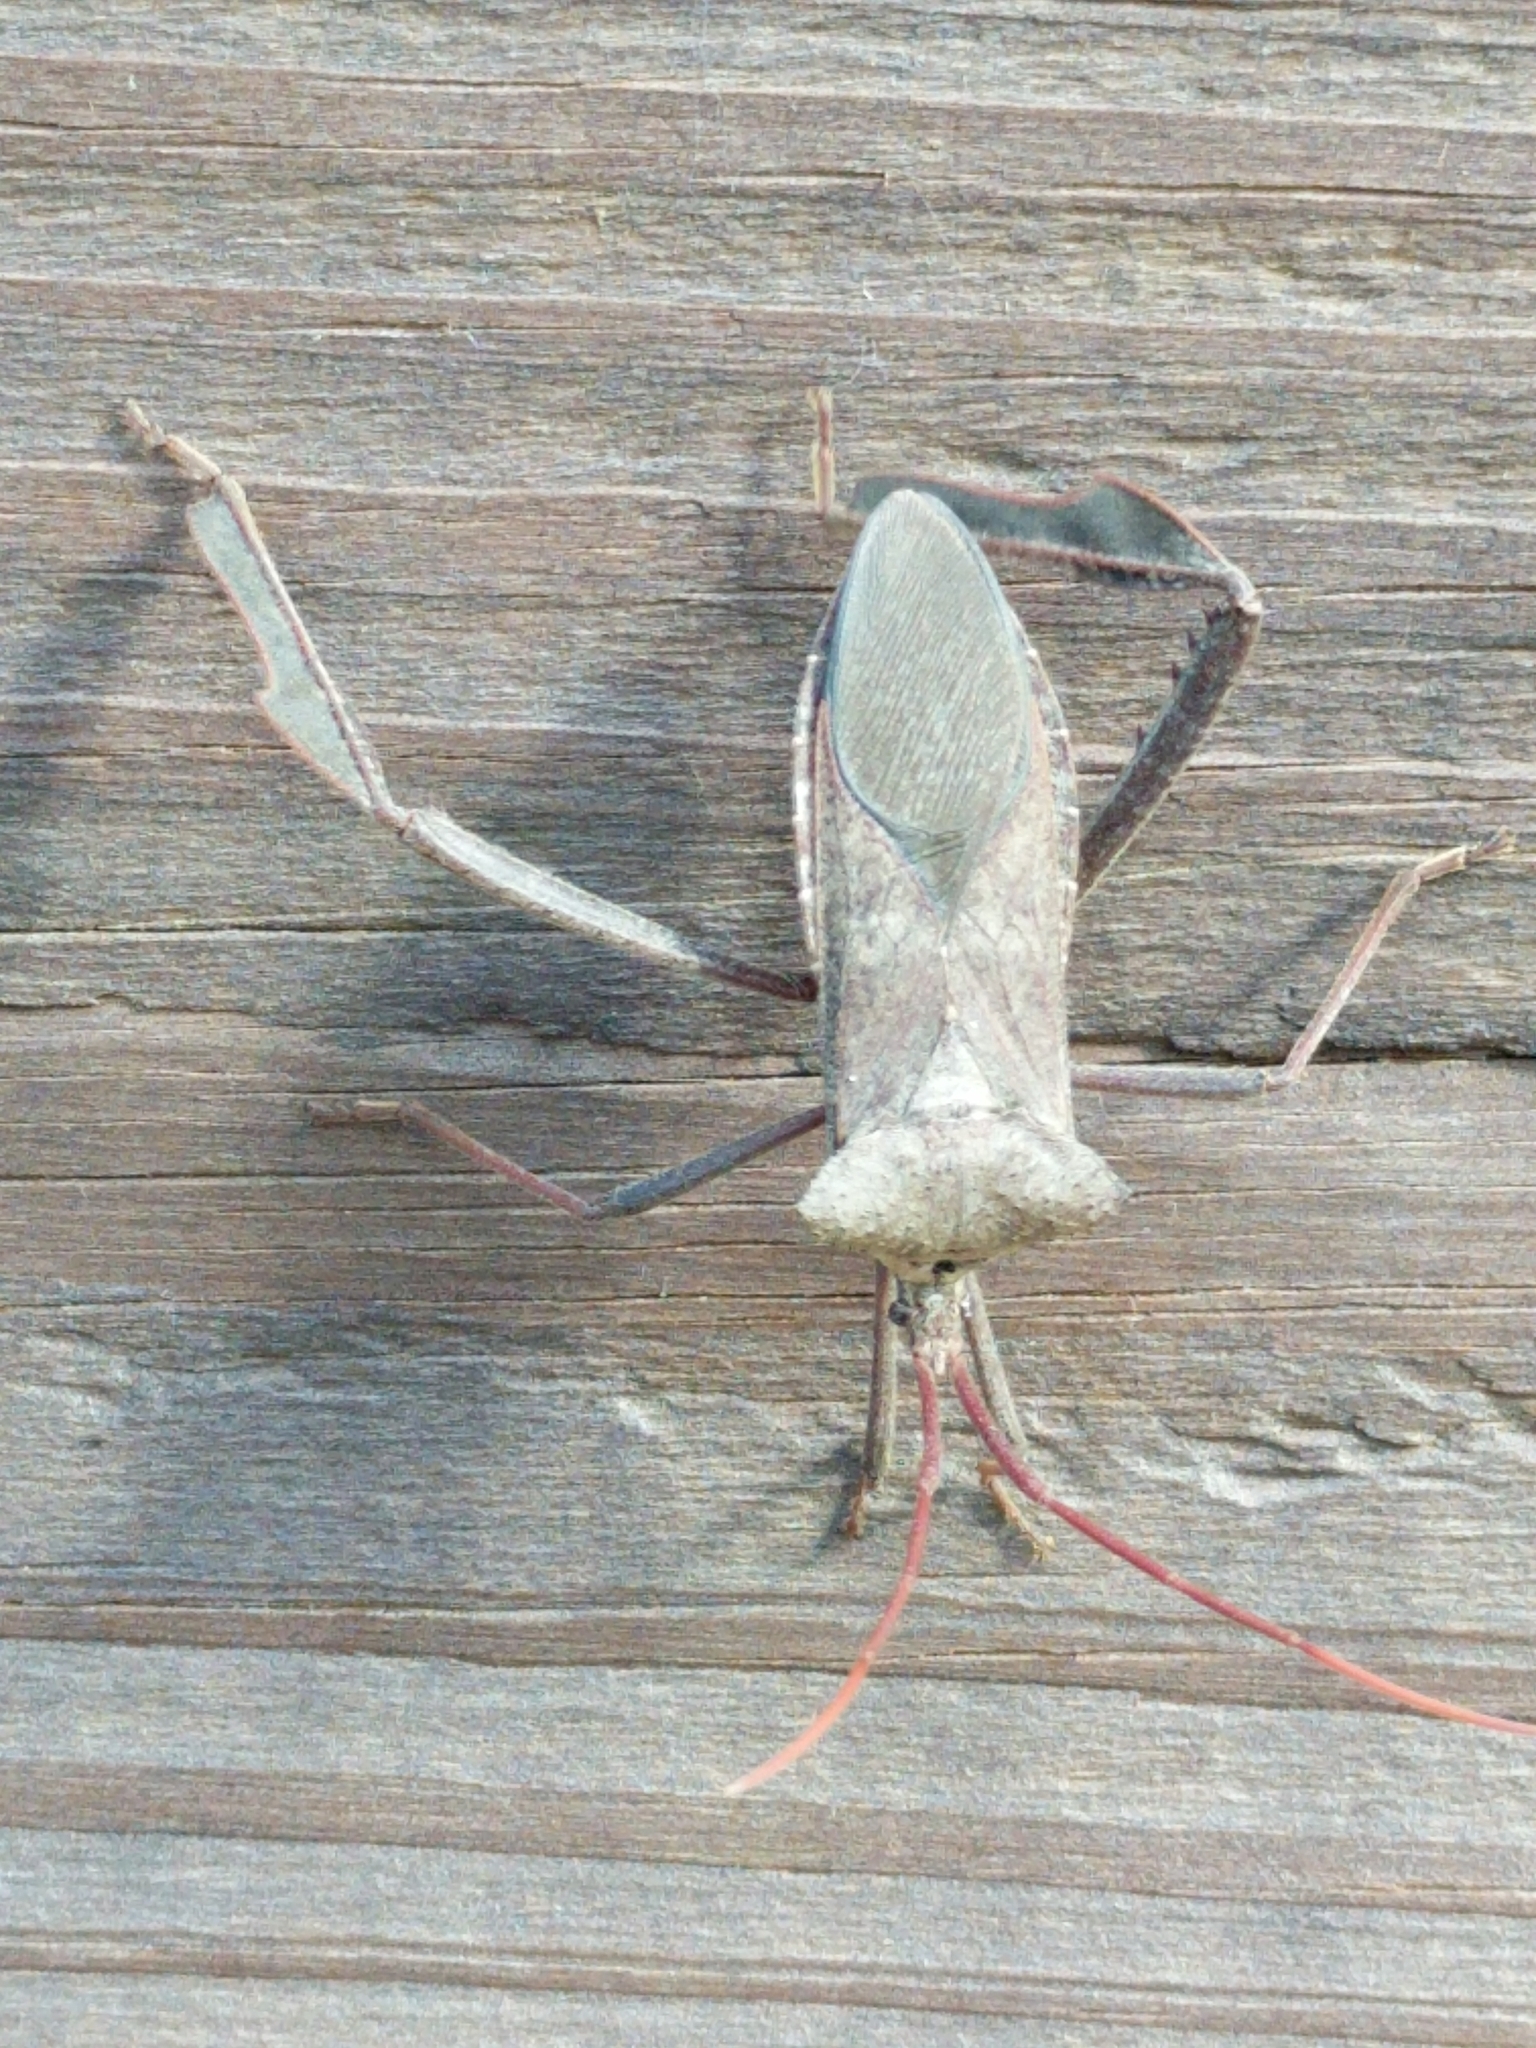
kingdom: Animalia
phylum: Arthropoda
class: Insecta
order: Hemiptera
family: Coreidae
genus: Acanthocephala
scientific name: Acanthocephala declivis
